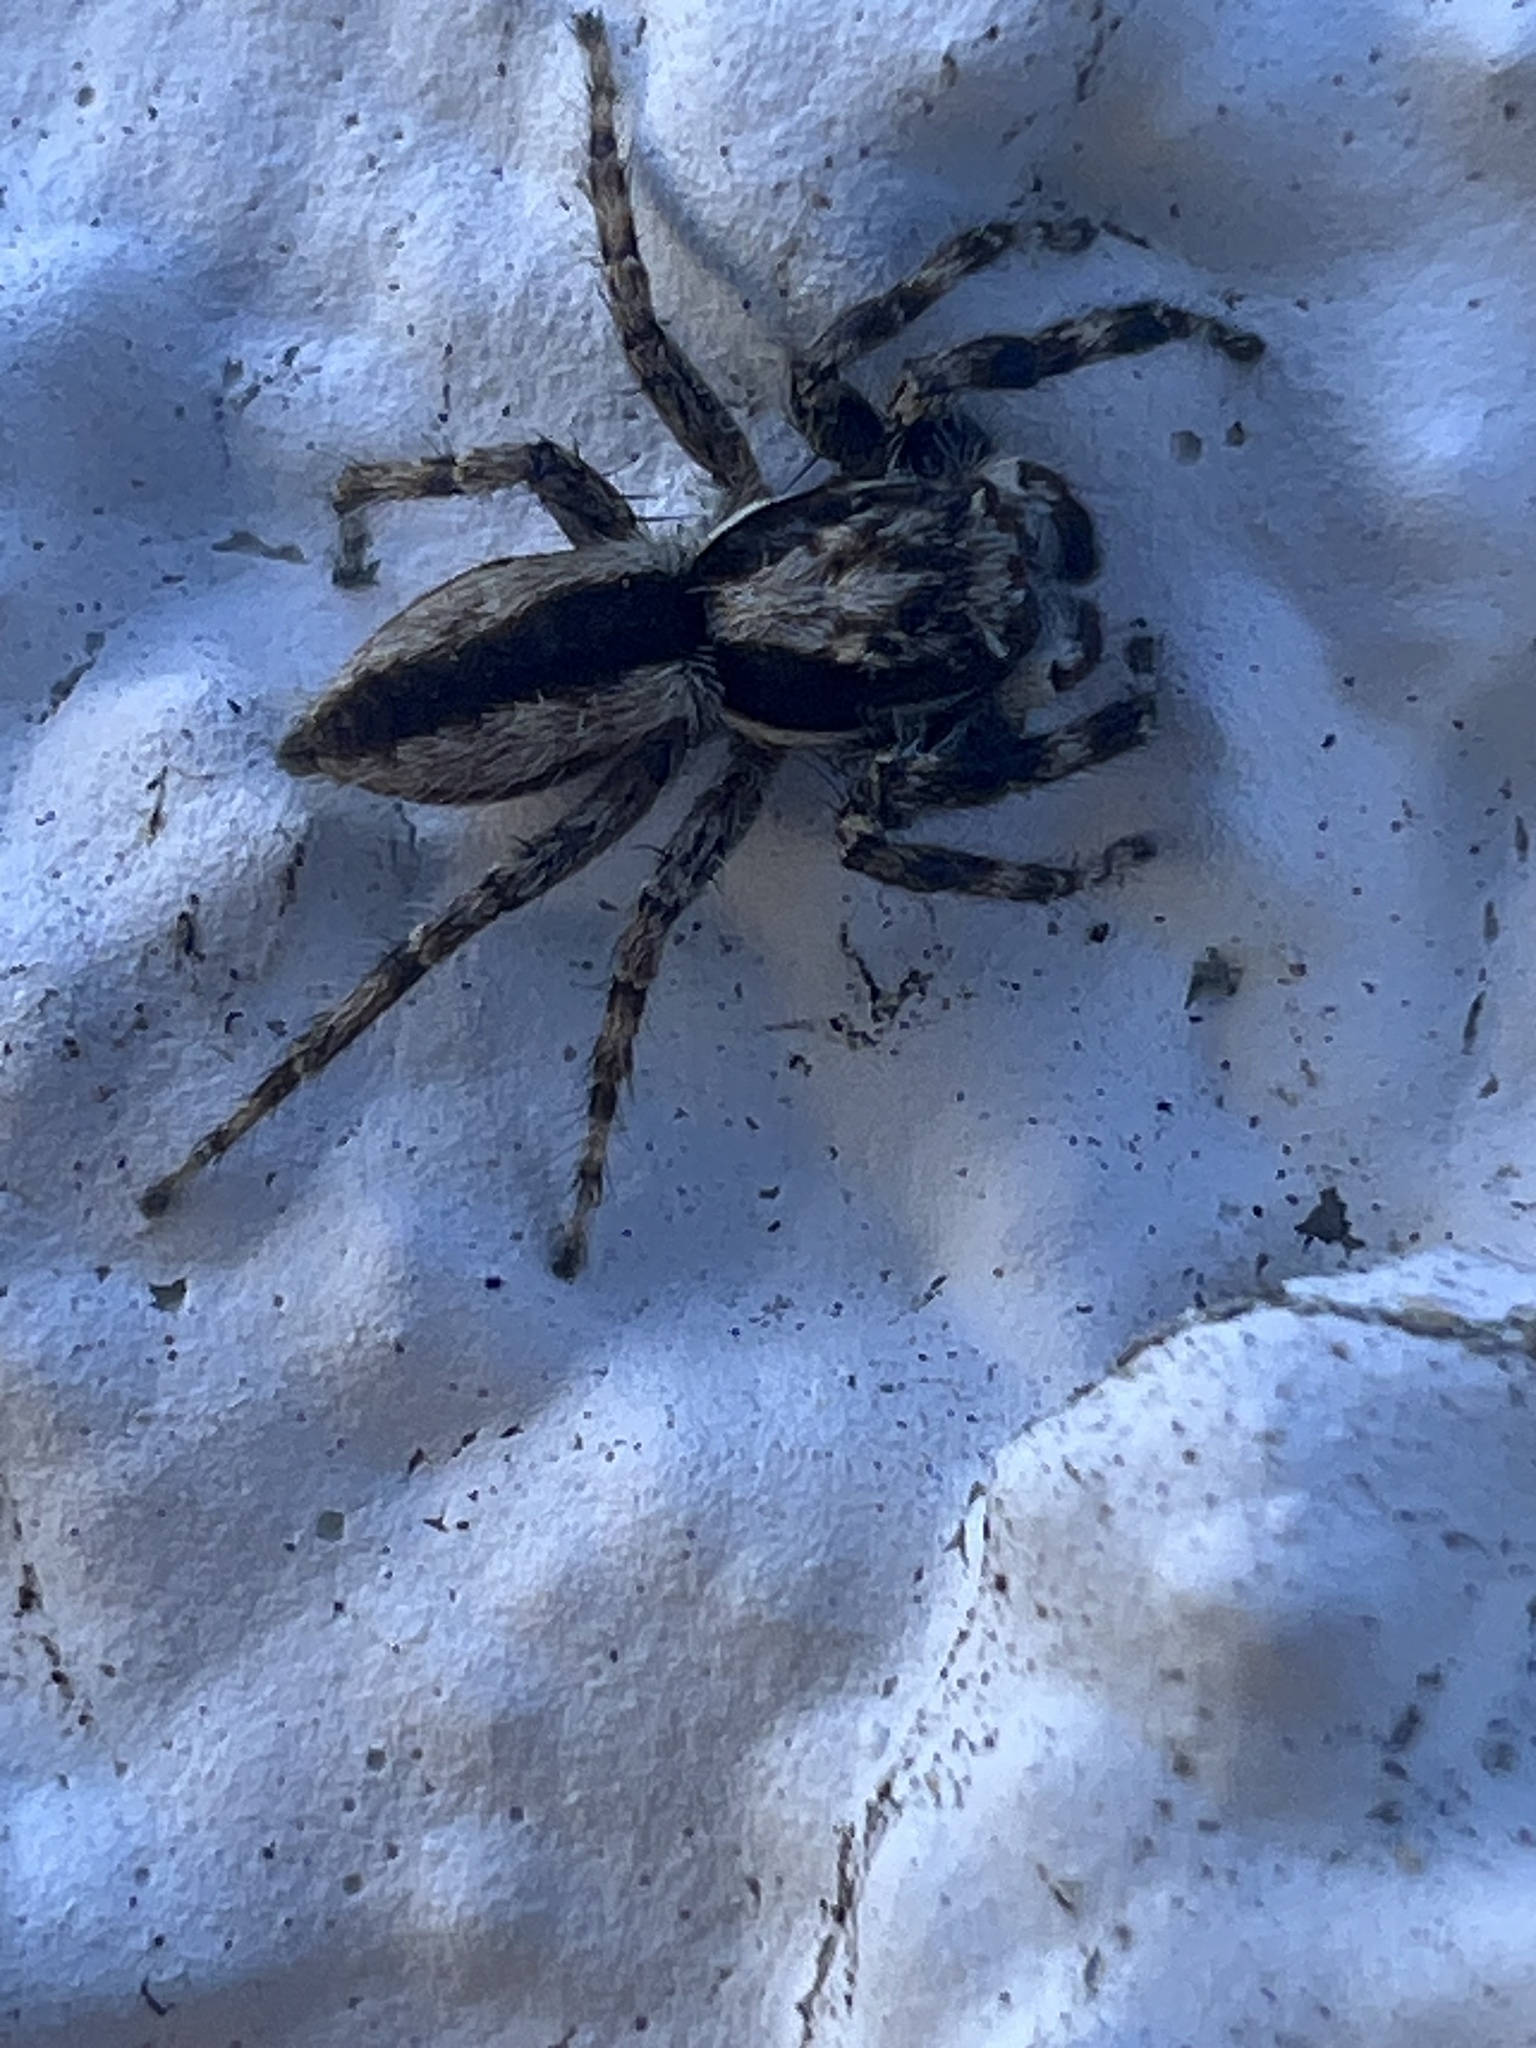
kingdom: Animalia
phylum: Arthropoda
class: Arachnida
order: Araneae
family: Salticidae
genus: Menemerus
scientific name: Menemerus bivittatus
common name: Gray wall jumper
